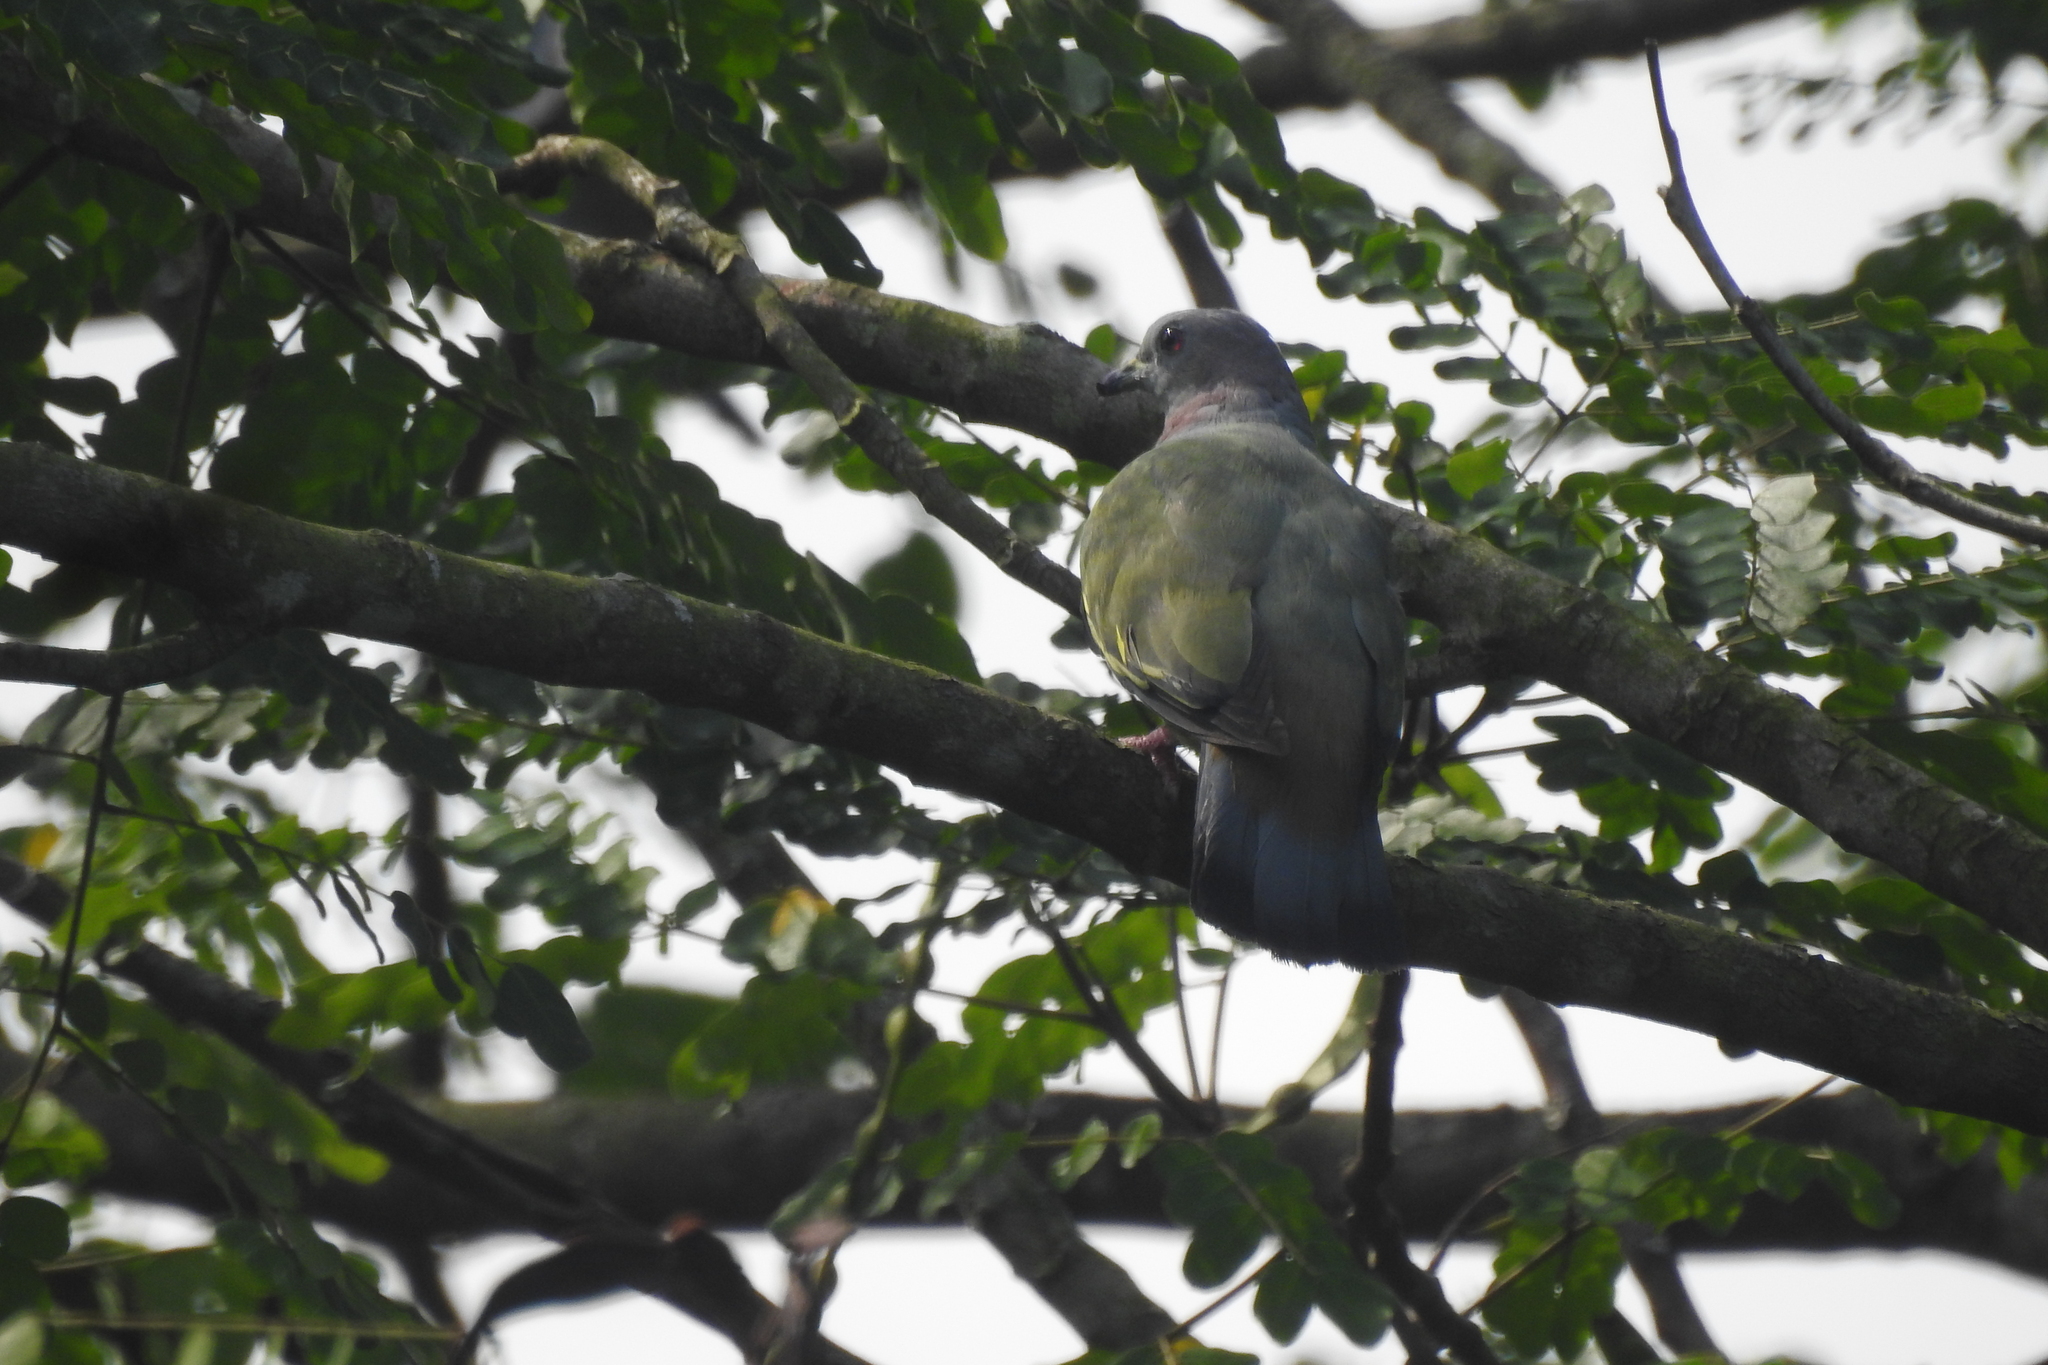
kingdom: Animalia
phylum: Chordata
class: Aves
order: Columbiformes
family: Columbidae
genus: Treron
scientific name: Treron vernans
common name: Pink-necked green pigeon
